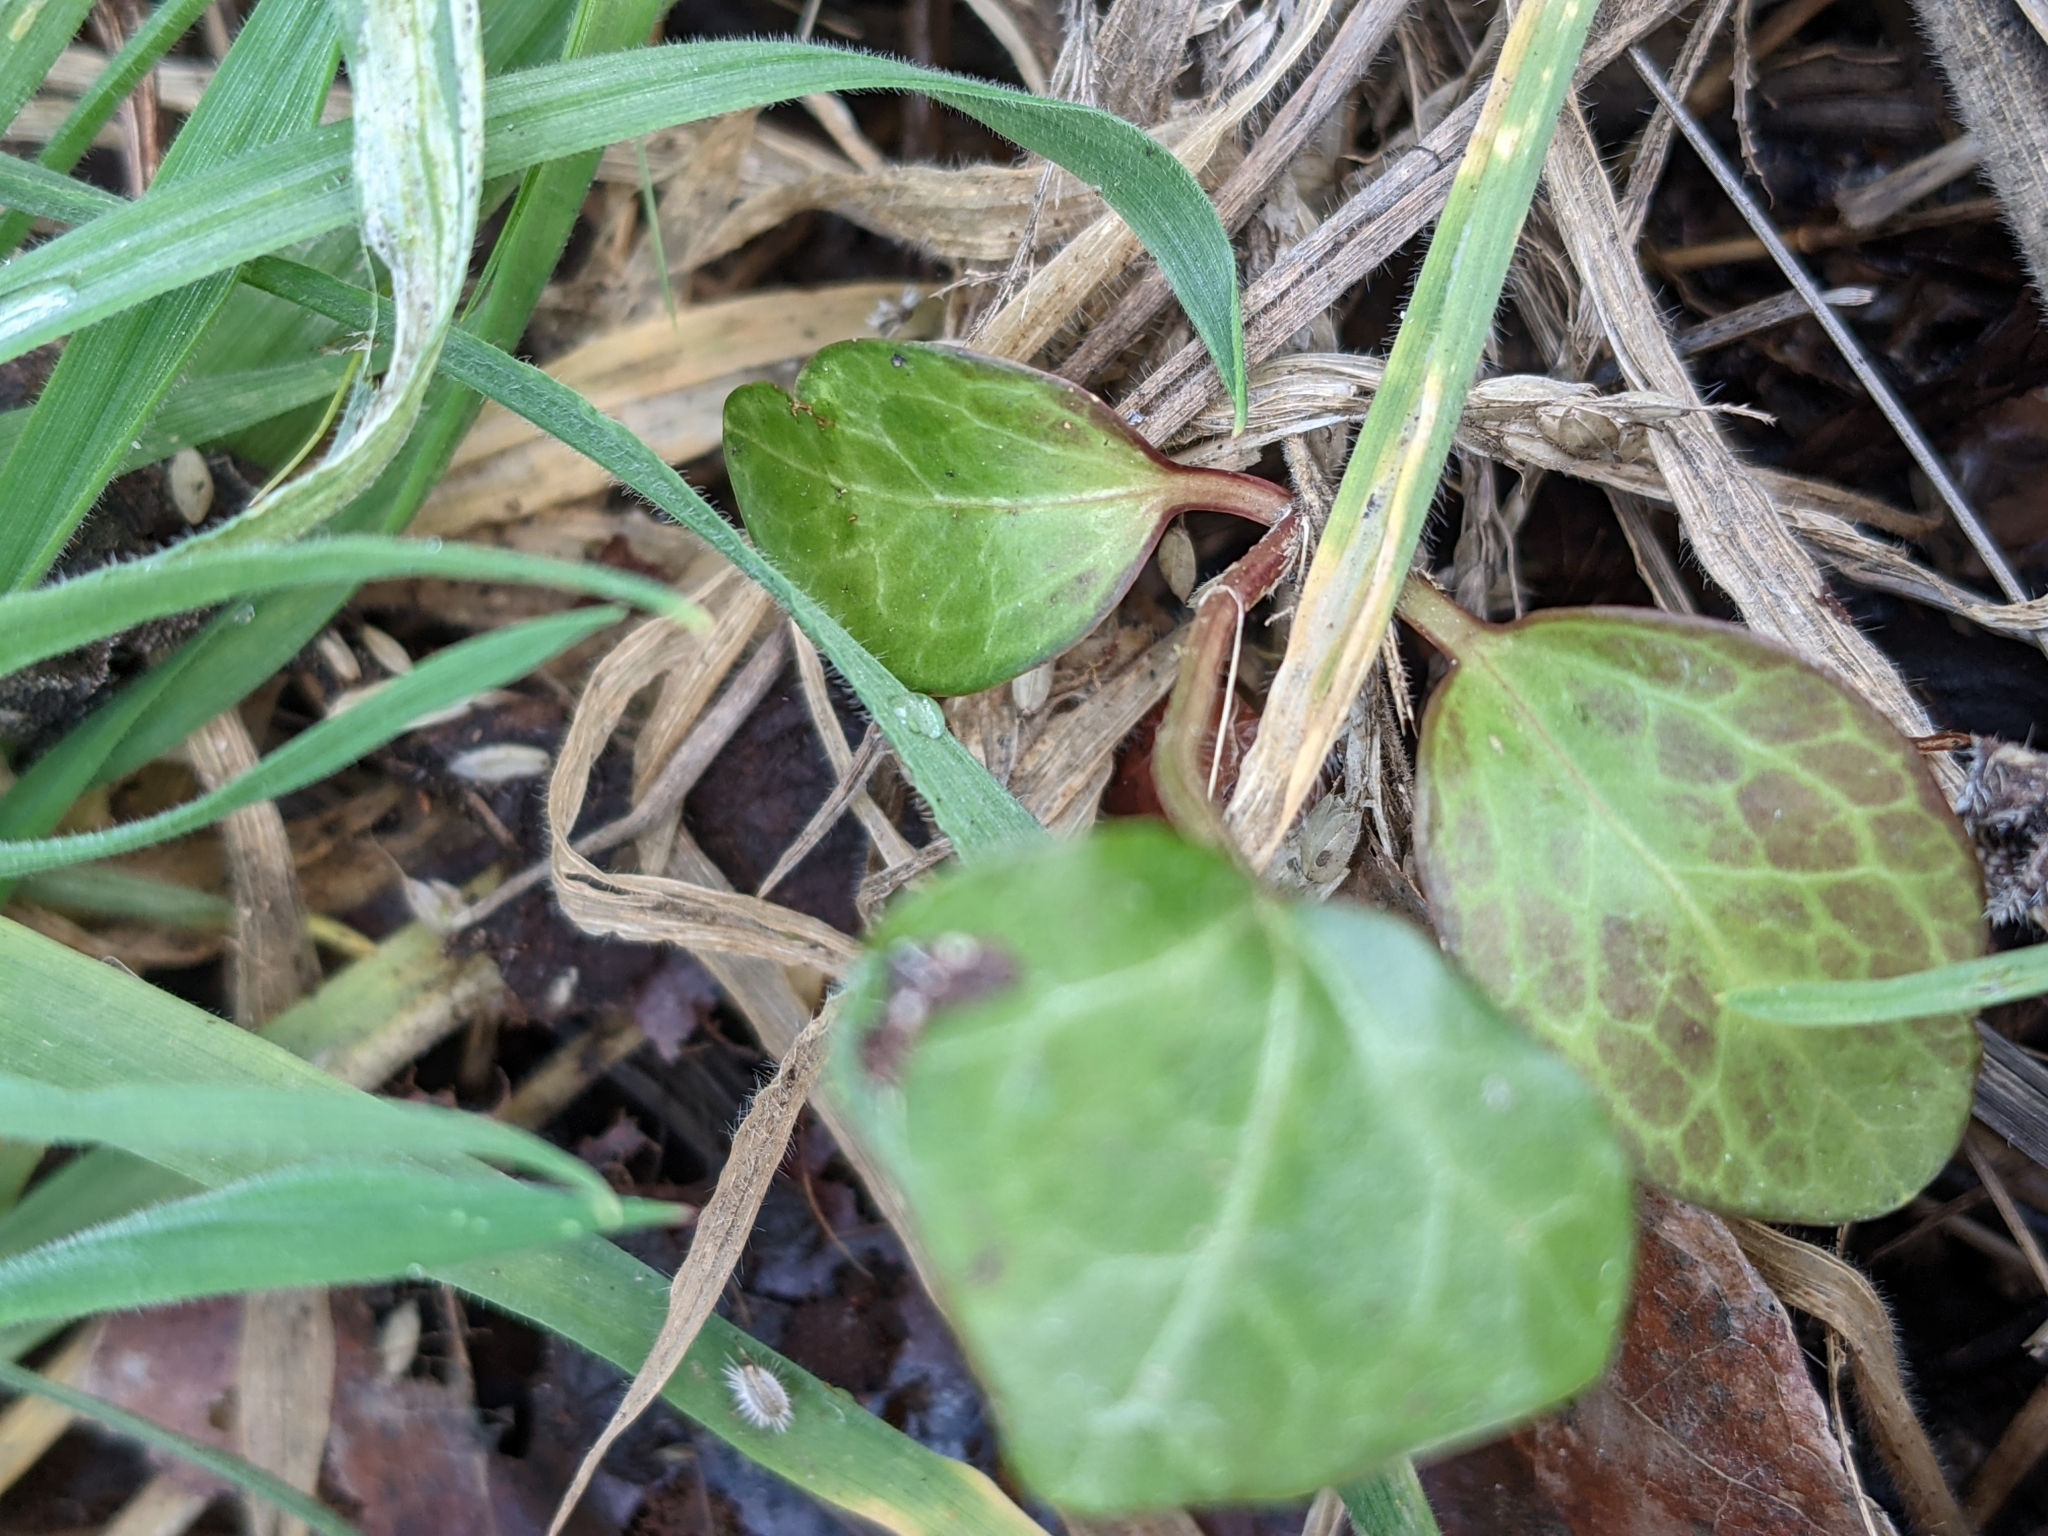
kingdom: Plantae
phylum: Tracheophyta
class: Magnoliopsida
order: Apiales
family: Araliaceae
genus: Hedera
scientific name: Hedera helix
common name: Ivy
